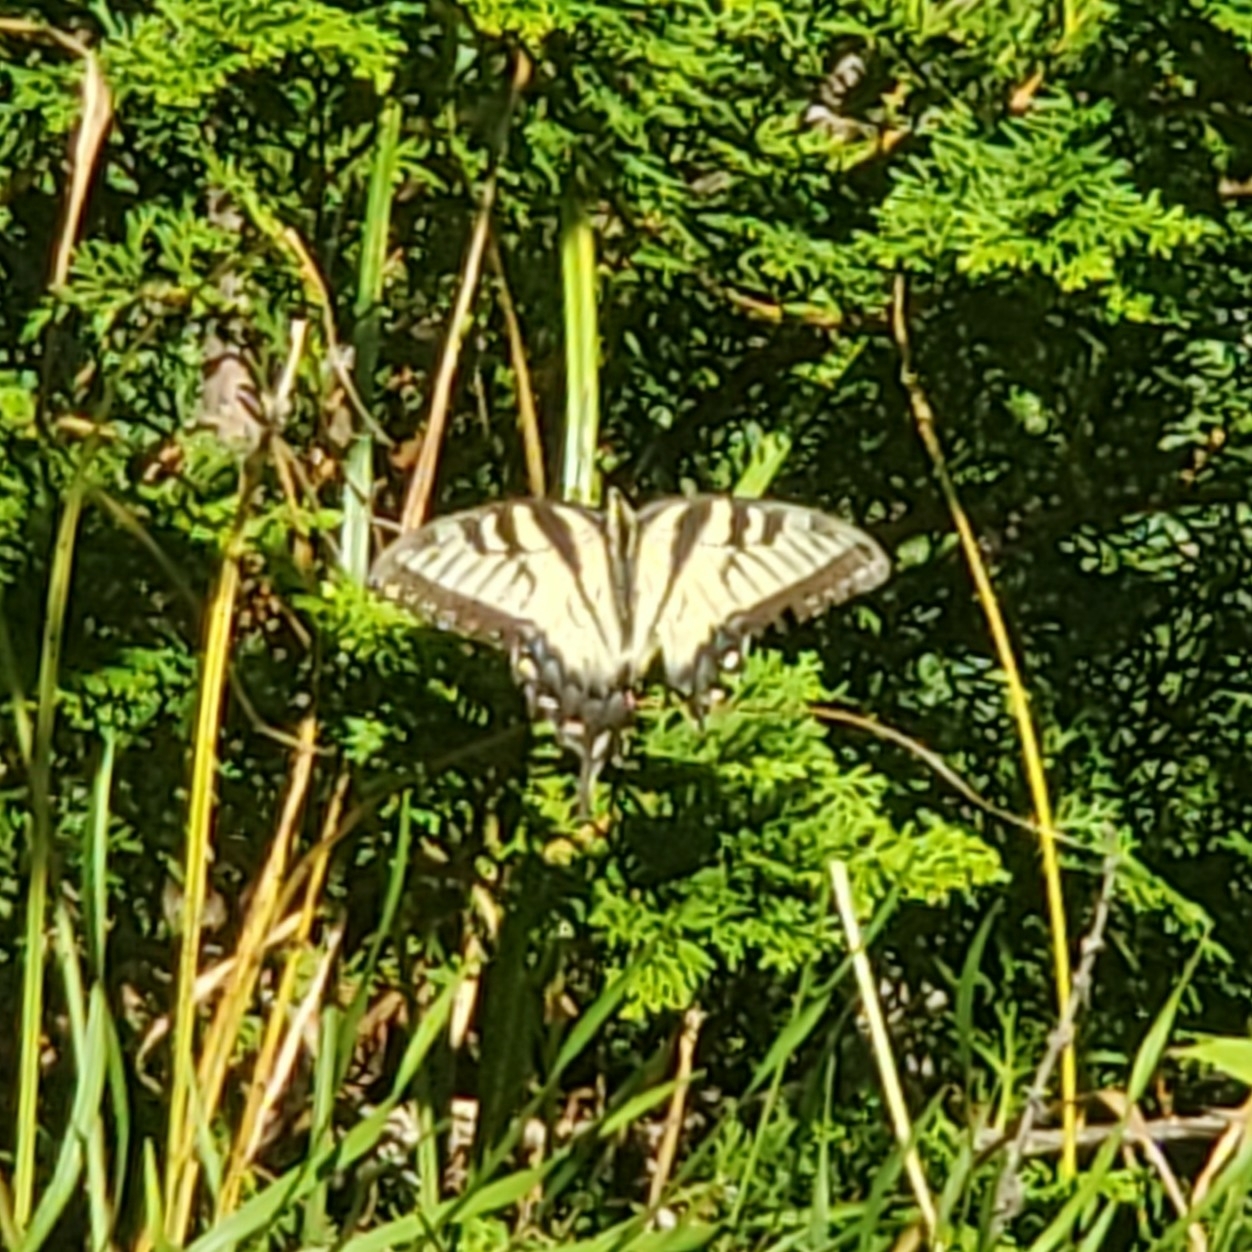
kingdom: Animalia
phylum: Arthropoda
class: Insecta
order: Lepidoptera
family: Papilionidae
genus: Papilio
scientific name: Papilio glaucus
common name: Tiger swallowtail
